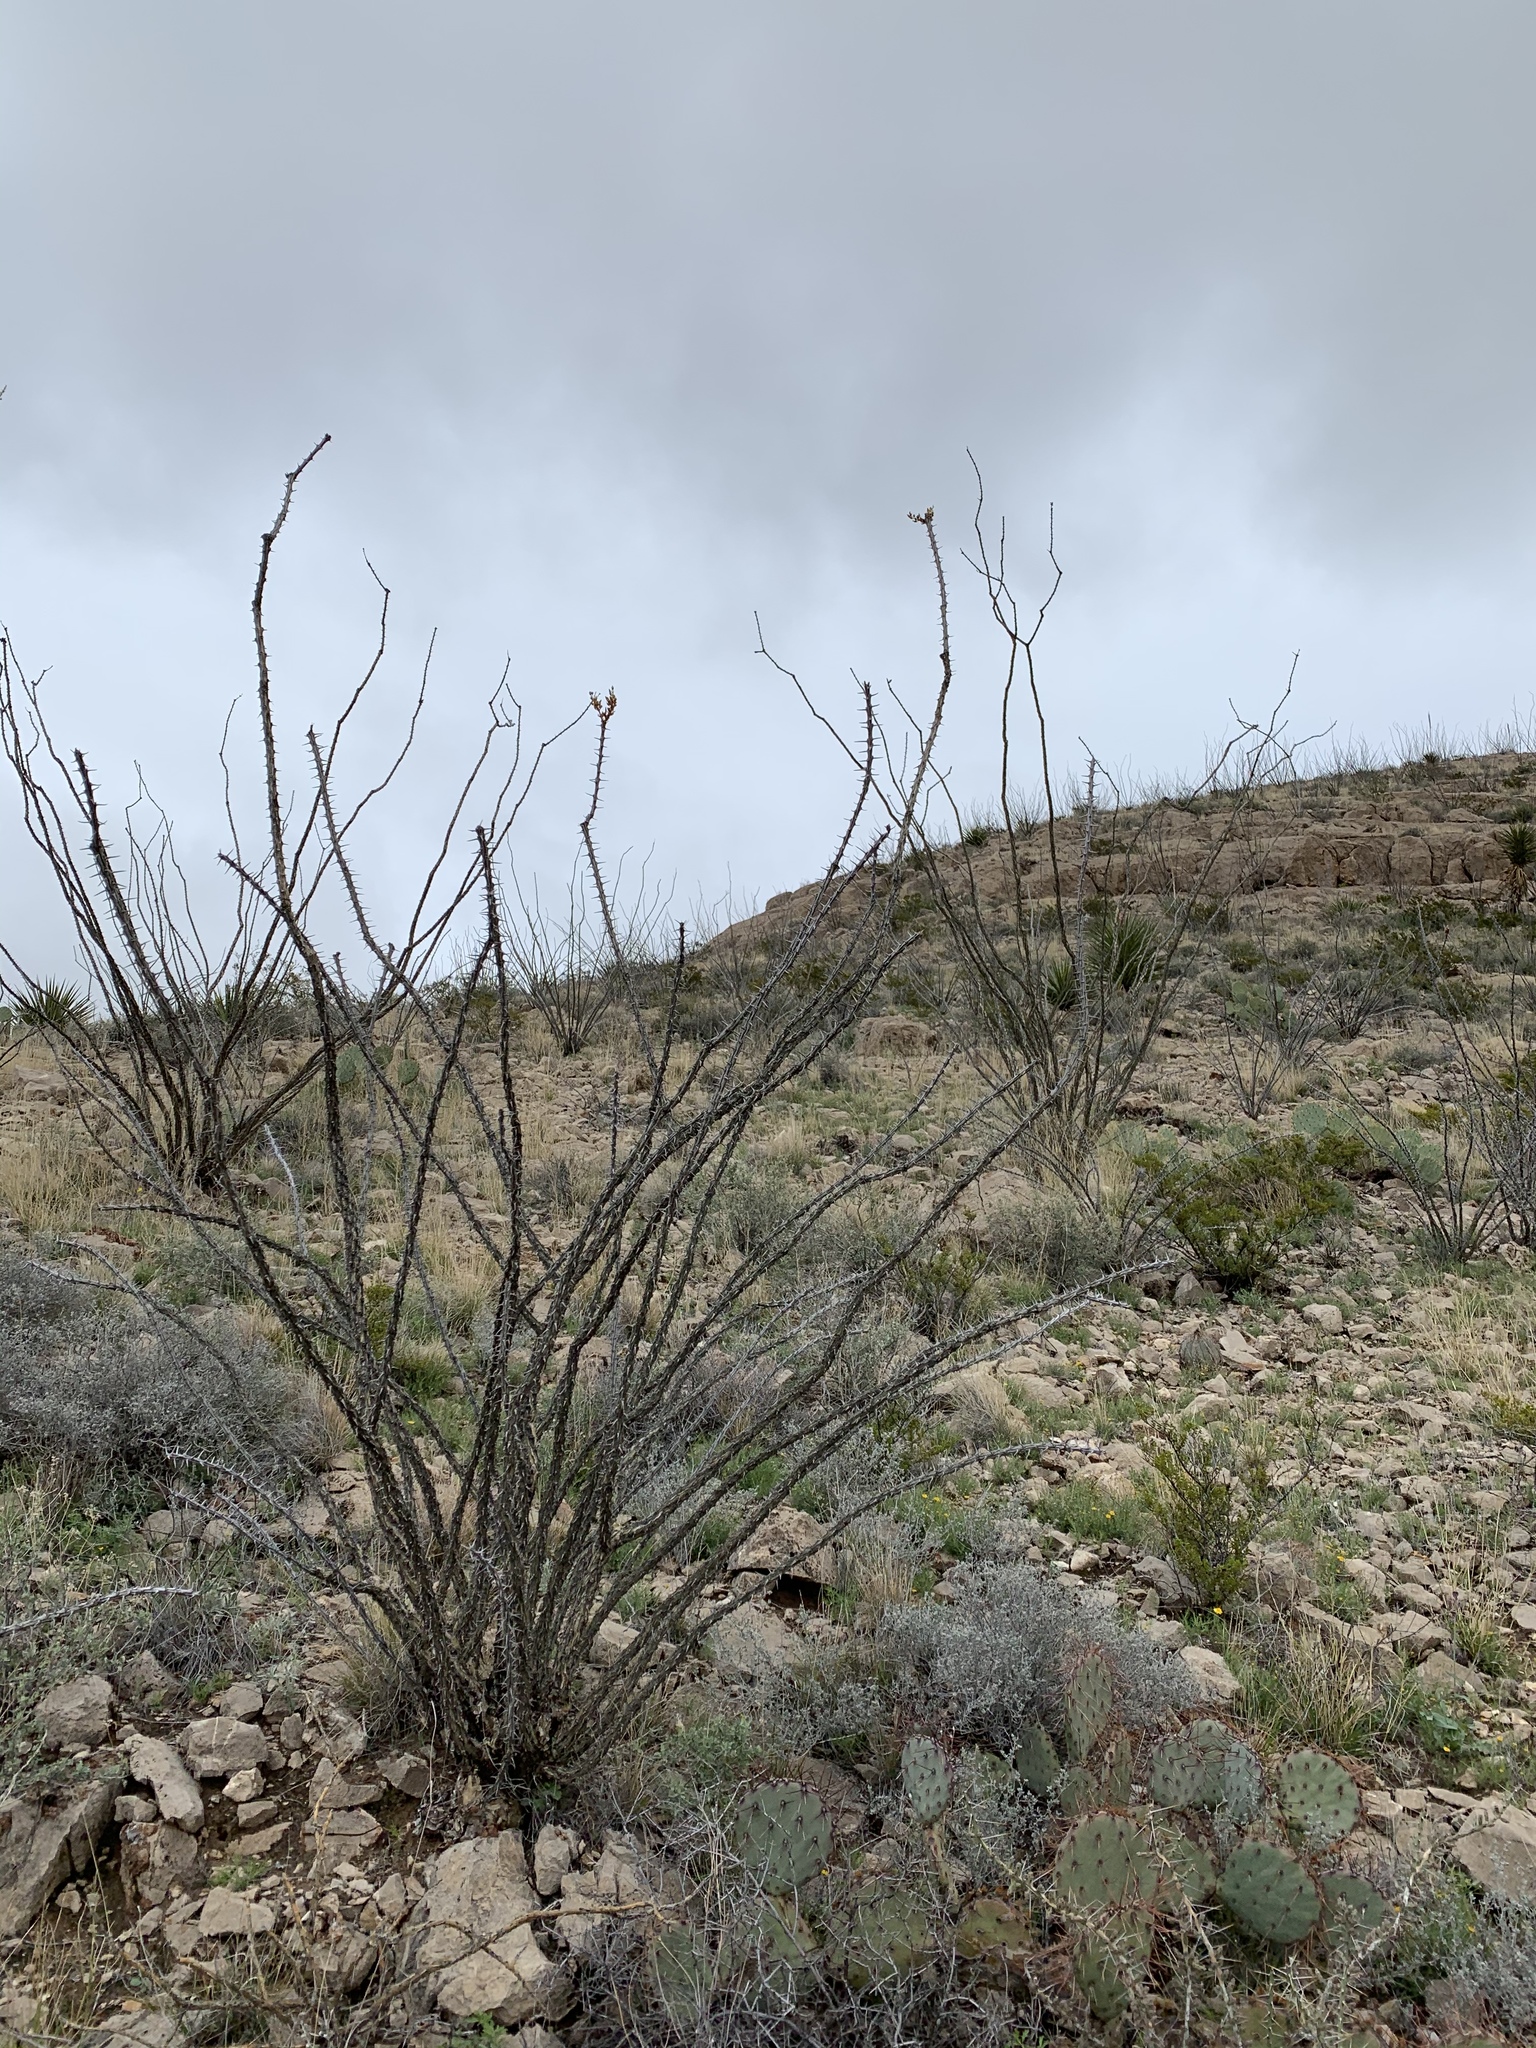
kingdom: Plantae
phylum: Tracheophyta
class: Magnoliopsida
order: Ericales
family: Fouquieriaceae
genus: Fouquieria
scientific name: Fouquieria splendens
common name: Vine-cactus
